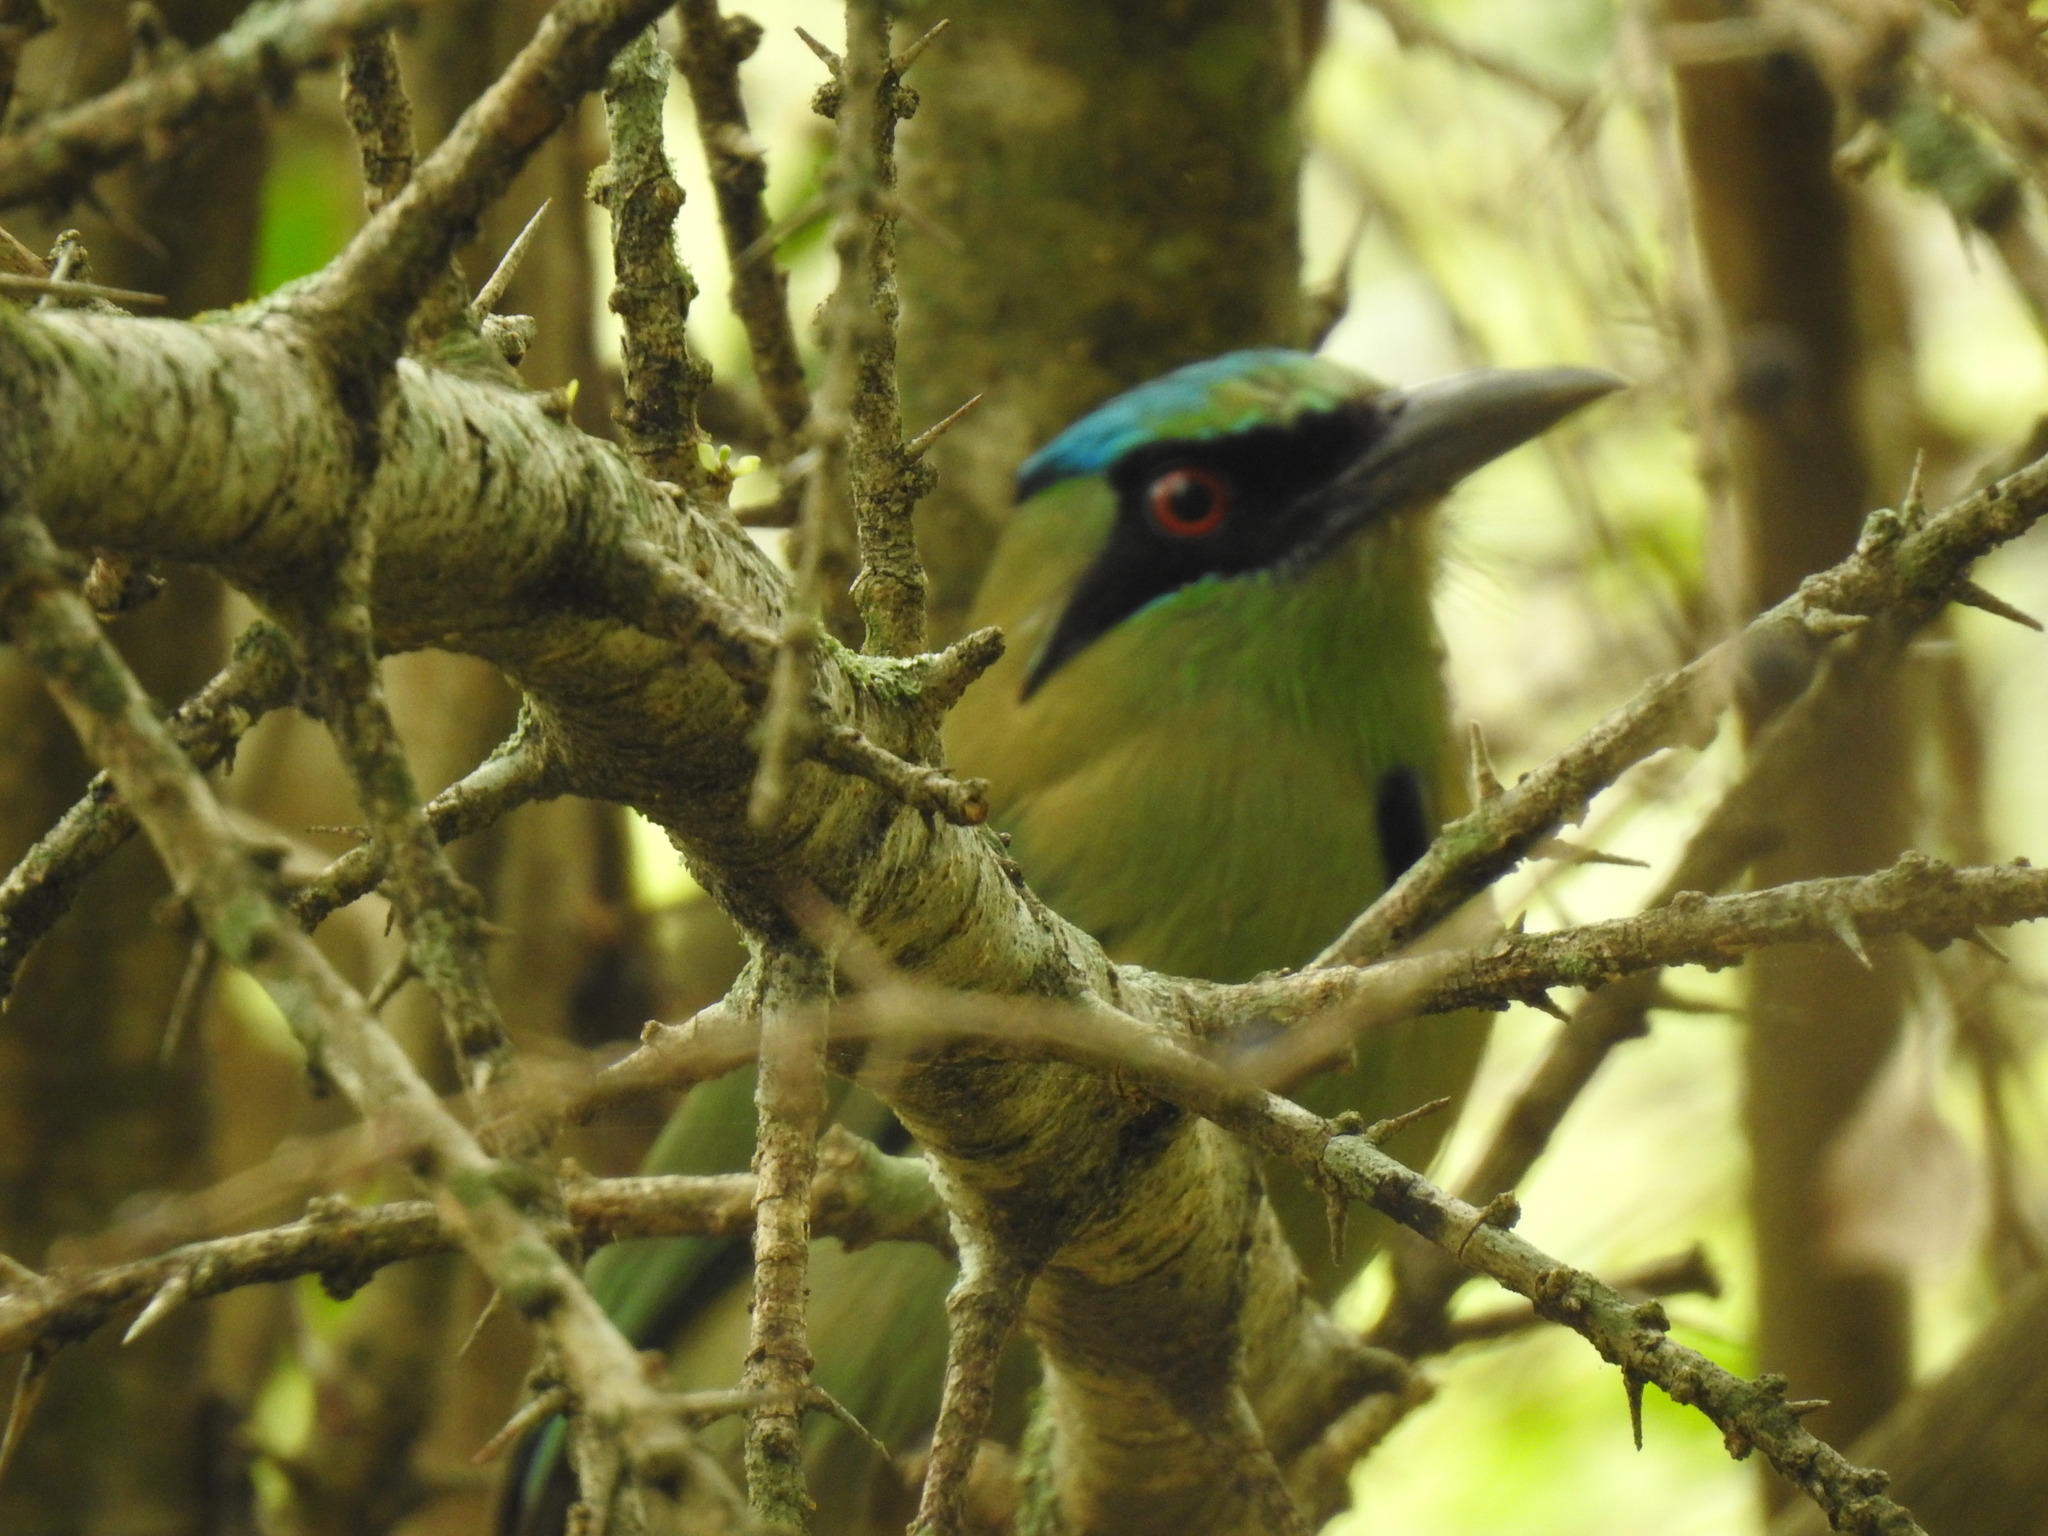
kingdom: Animalia
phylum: Chordata
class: Aves
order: Coraciiformes
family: Momotidae
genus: Momotus
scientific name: Momotus coeruliceps
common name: Blue-capped motmot
